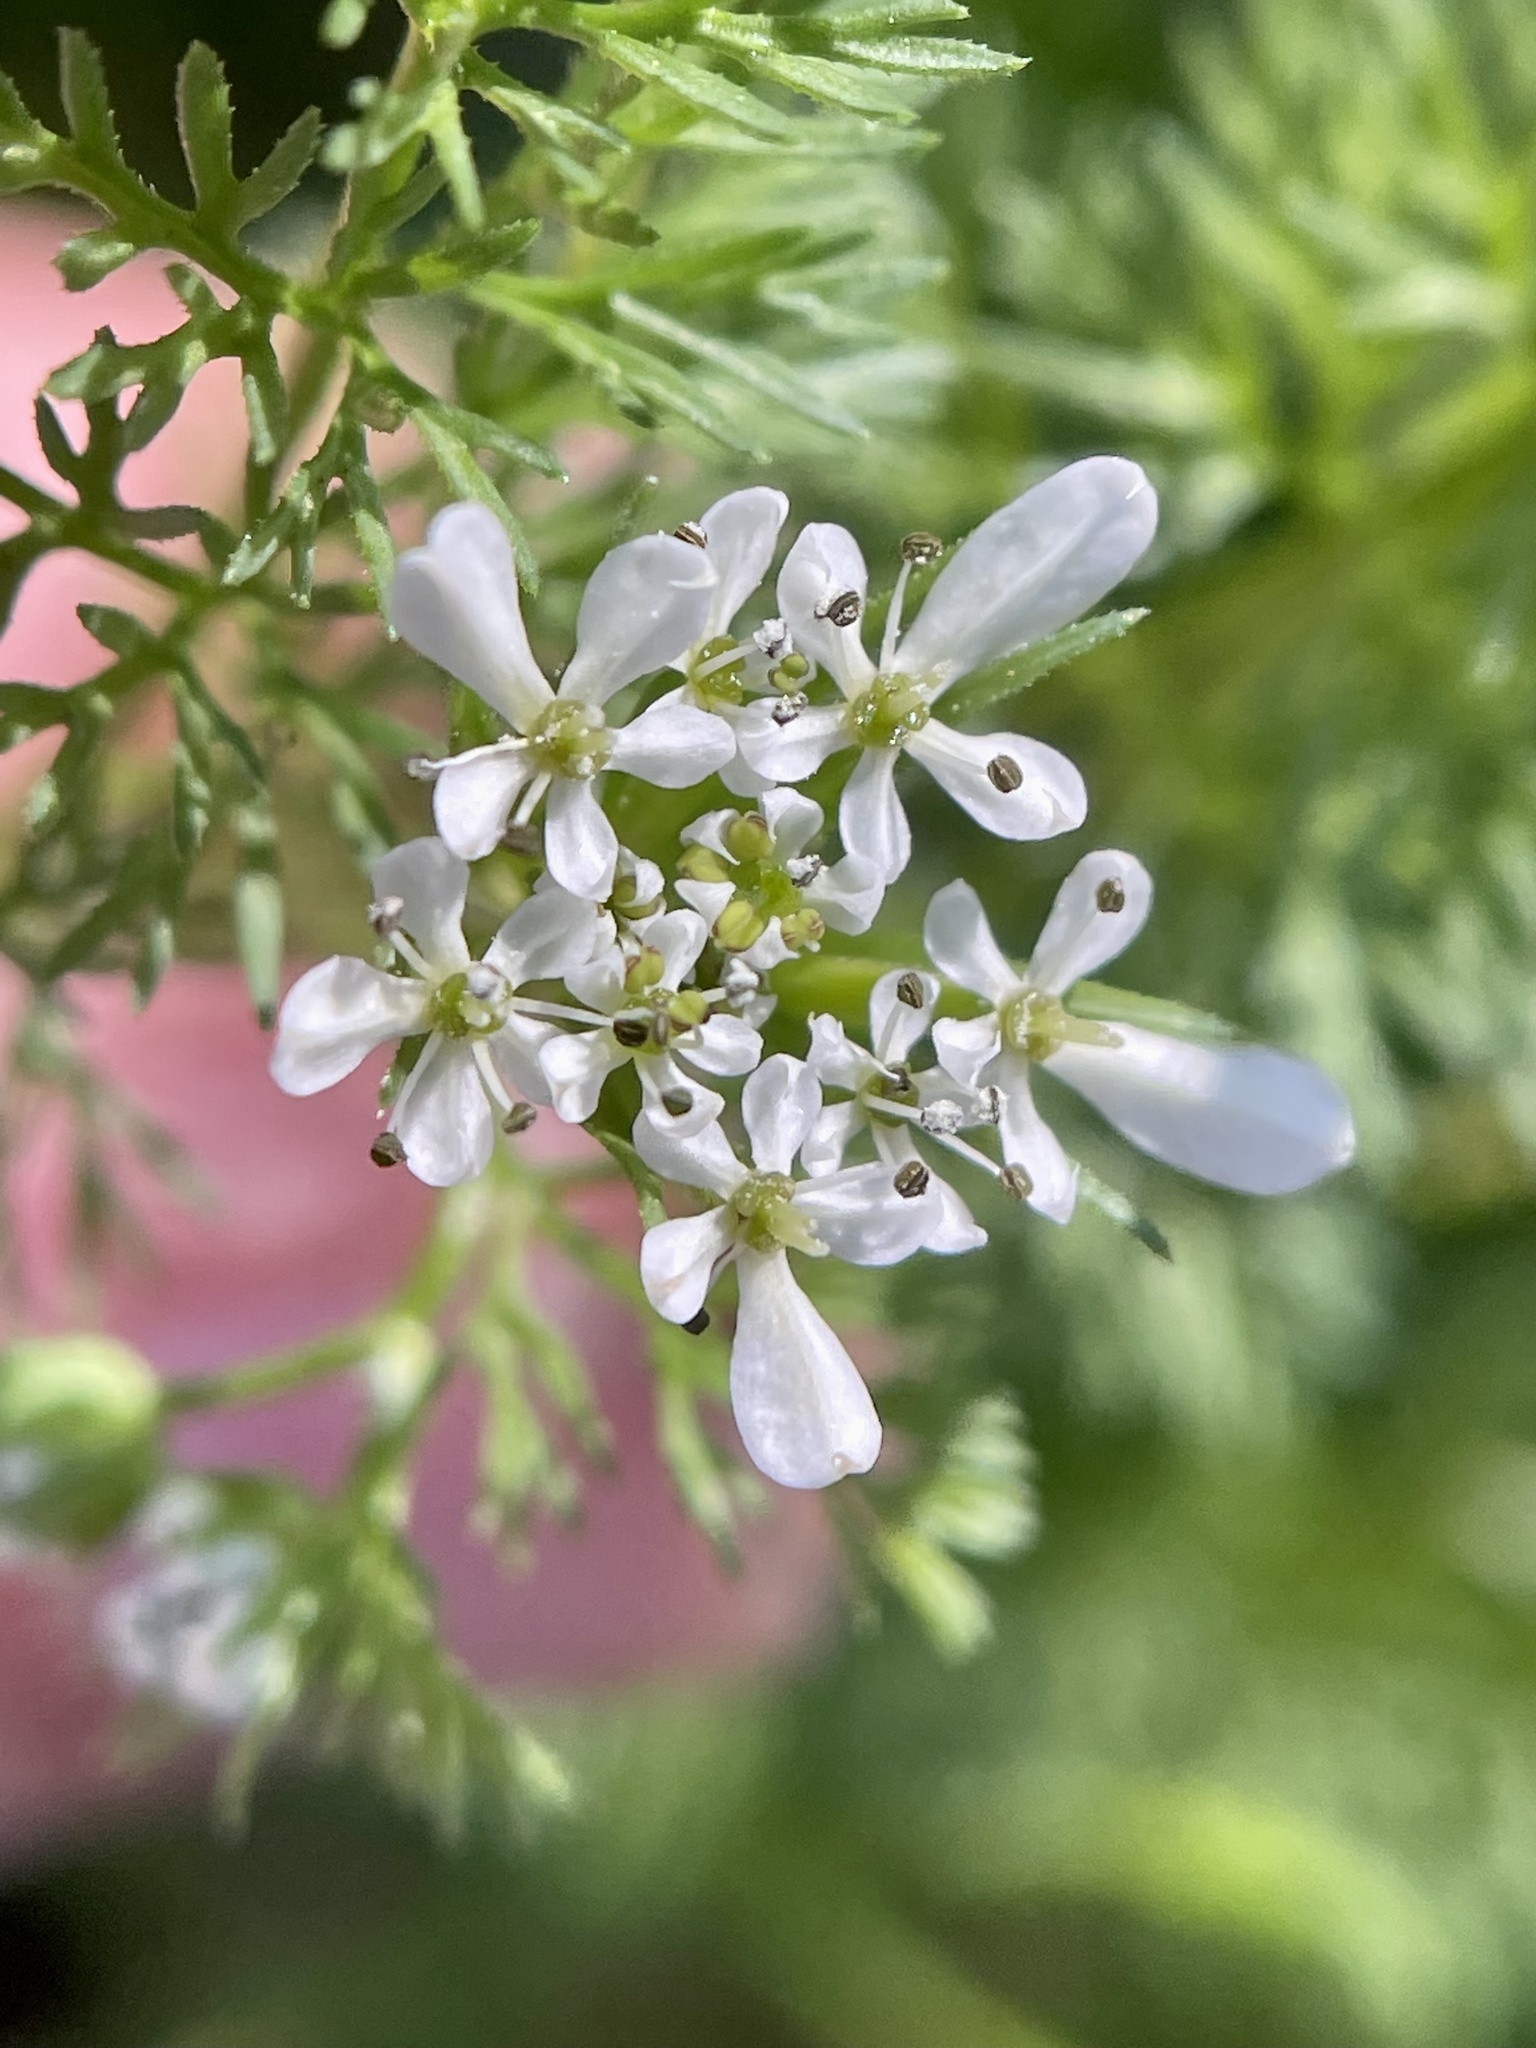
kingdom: Plantae
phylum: Tracheophyta
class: Magnoliopsida
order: Apiales
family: Apiaceae
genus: Scandix
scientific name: Scandix pecten-veneris
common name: Shepherd's-needle
